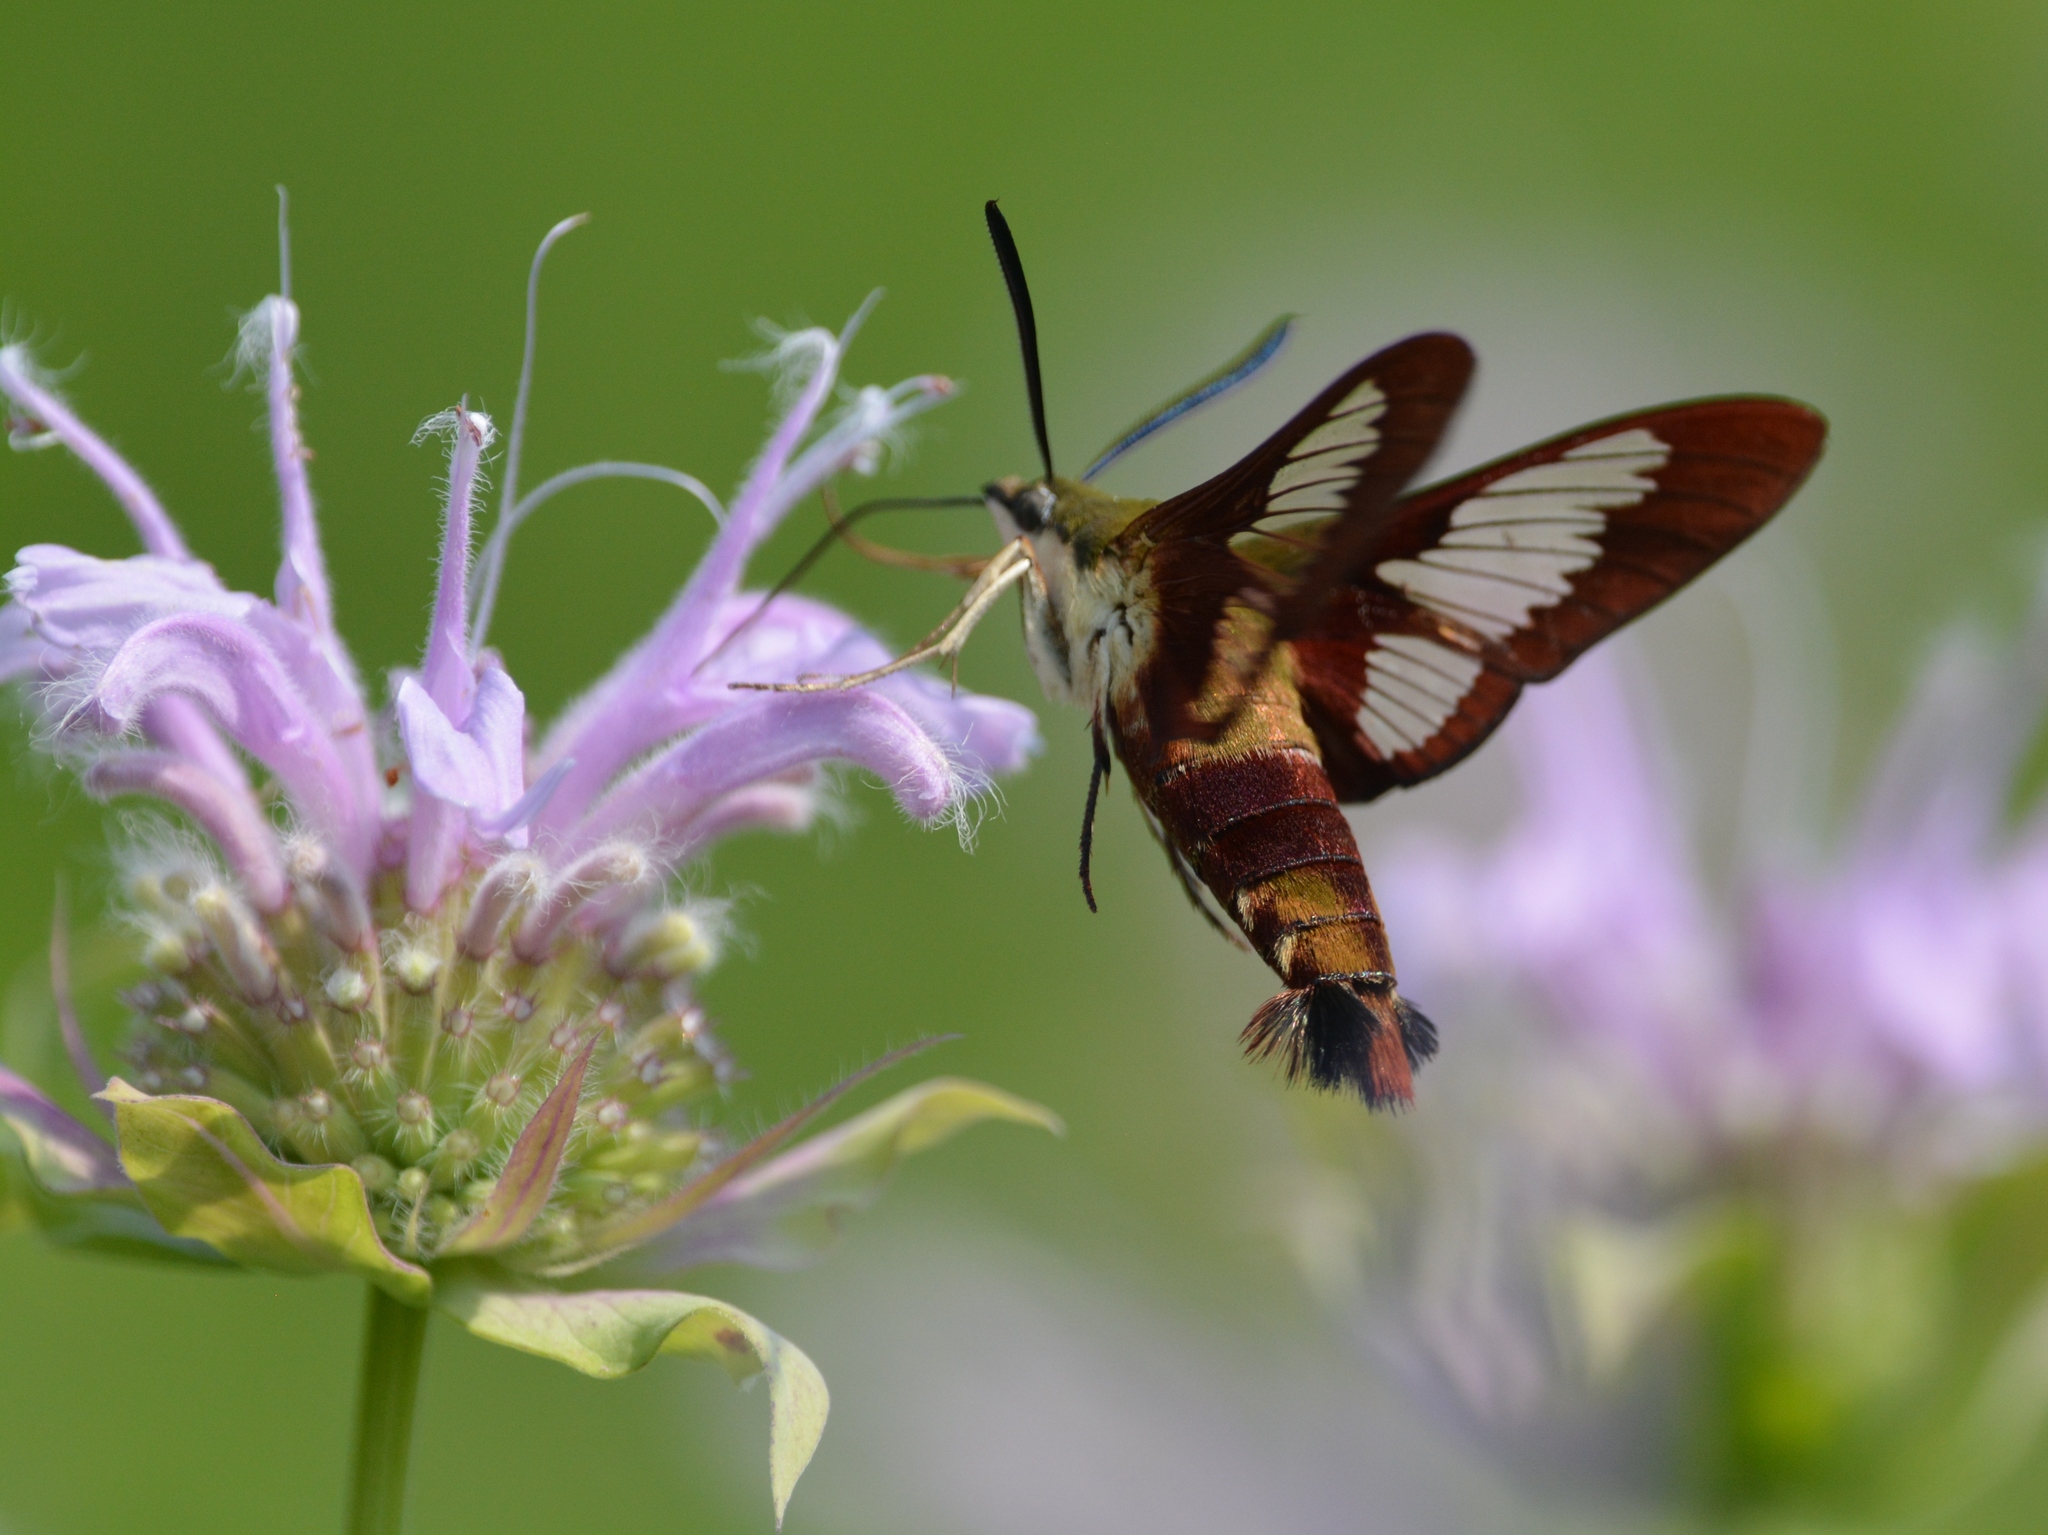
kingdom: Animalia
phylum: Arthropoda
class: Insecta
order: Lepidoptera
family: Sphingidae
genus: Hemaris
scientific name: Hemaris thysbe
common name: Common clear-wing
